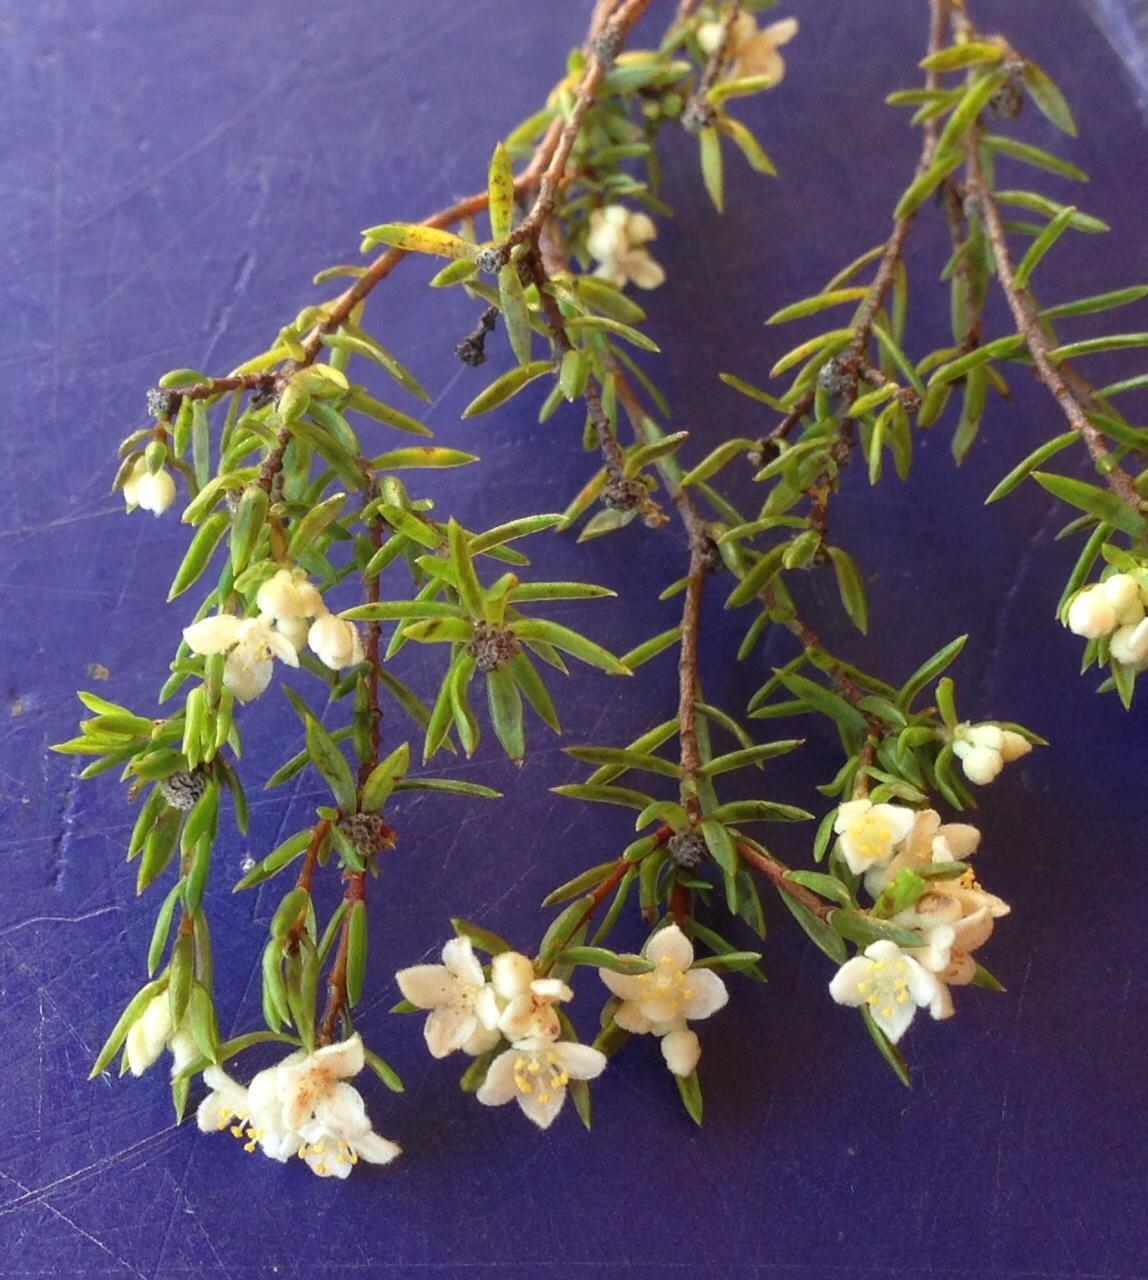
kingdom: Plantae
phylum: Tracheophyta
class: Magnoliopsida
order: Malvales
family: Thymelaeaceae
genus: Lachnaea
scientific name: Lachnaea diosmoides
